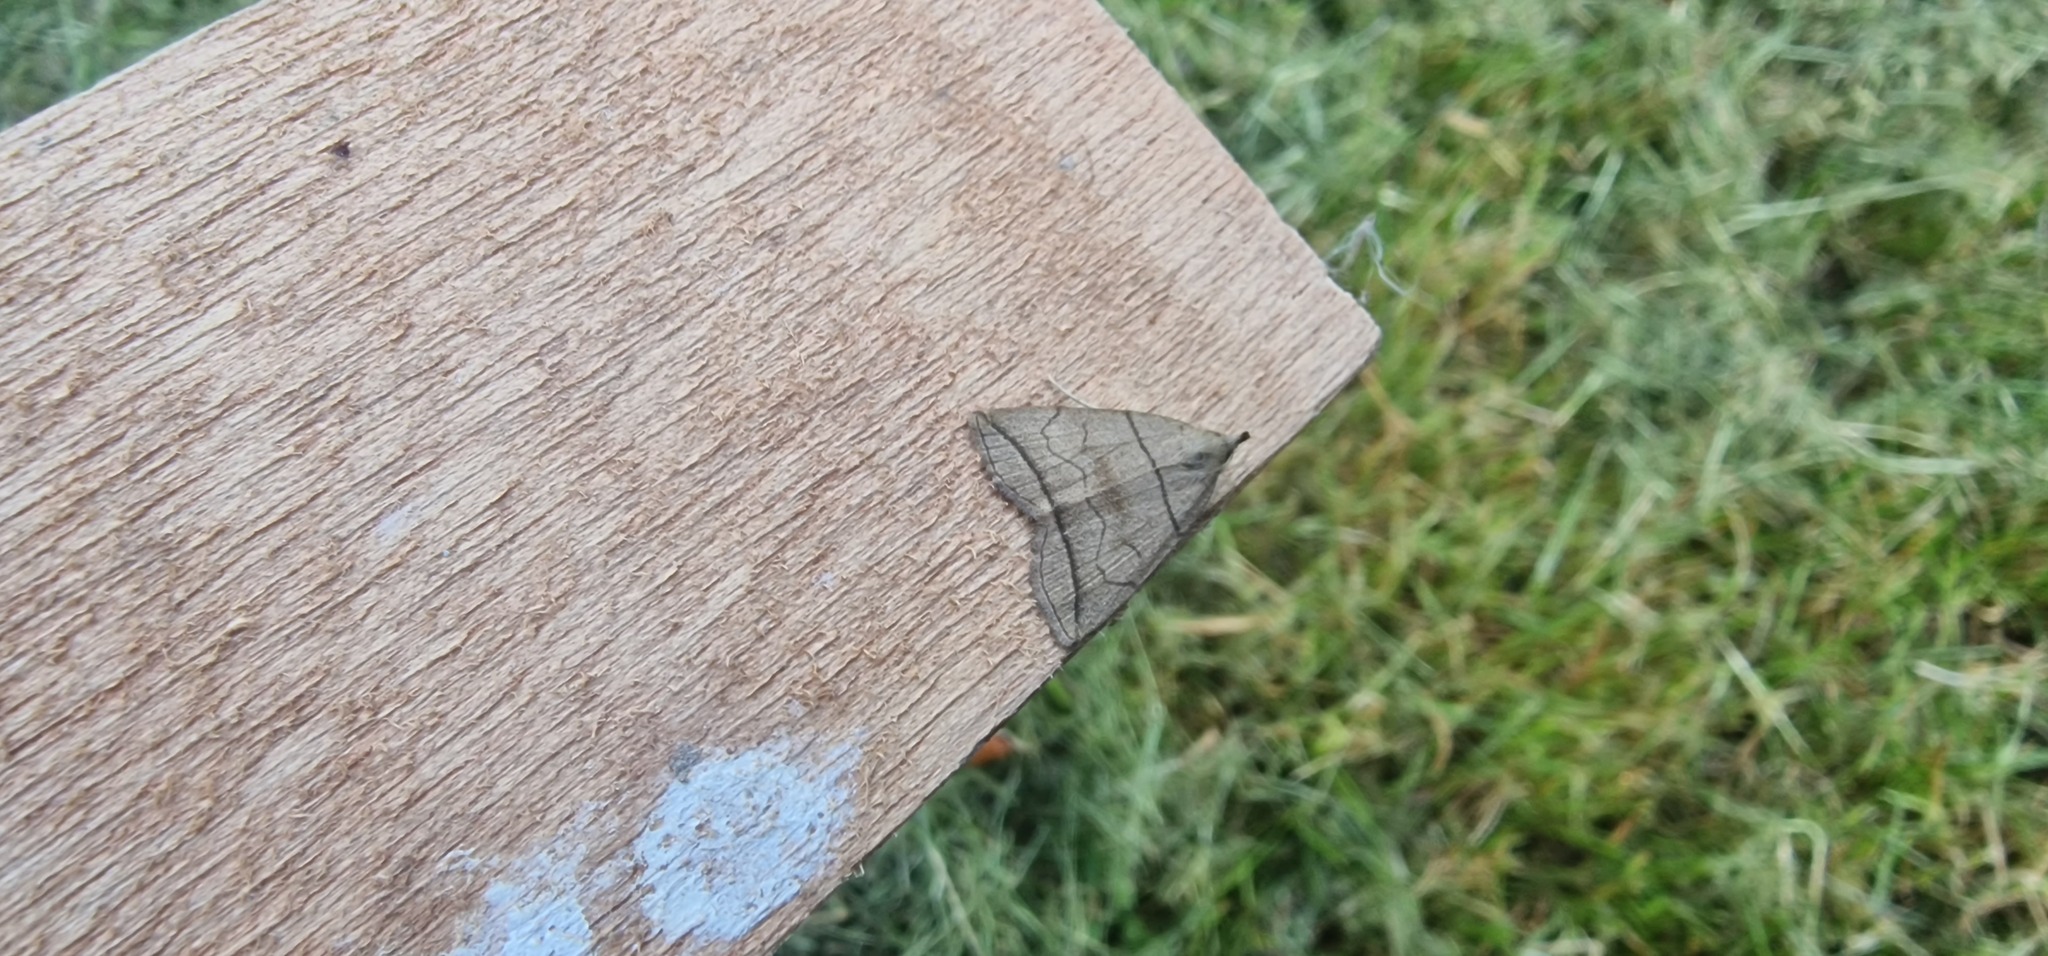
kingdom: Animalia
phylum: Arthropoda
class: Insecta
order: Lepidoptera
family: Erebidae
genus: Herminia
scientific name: Herminia grisealis
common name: Small fan-foot
